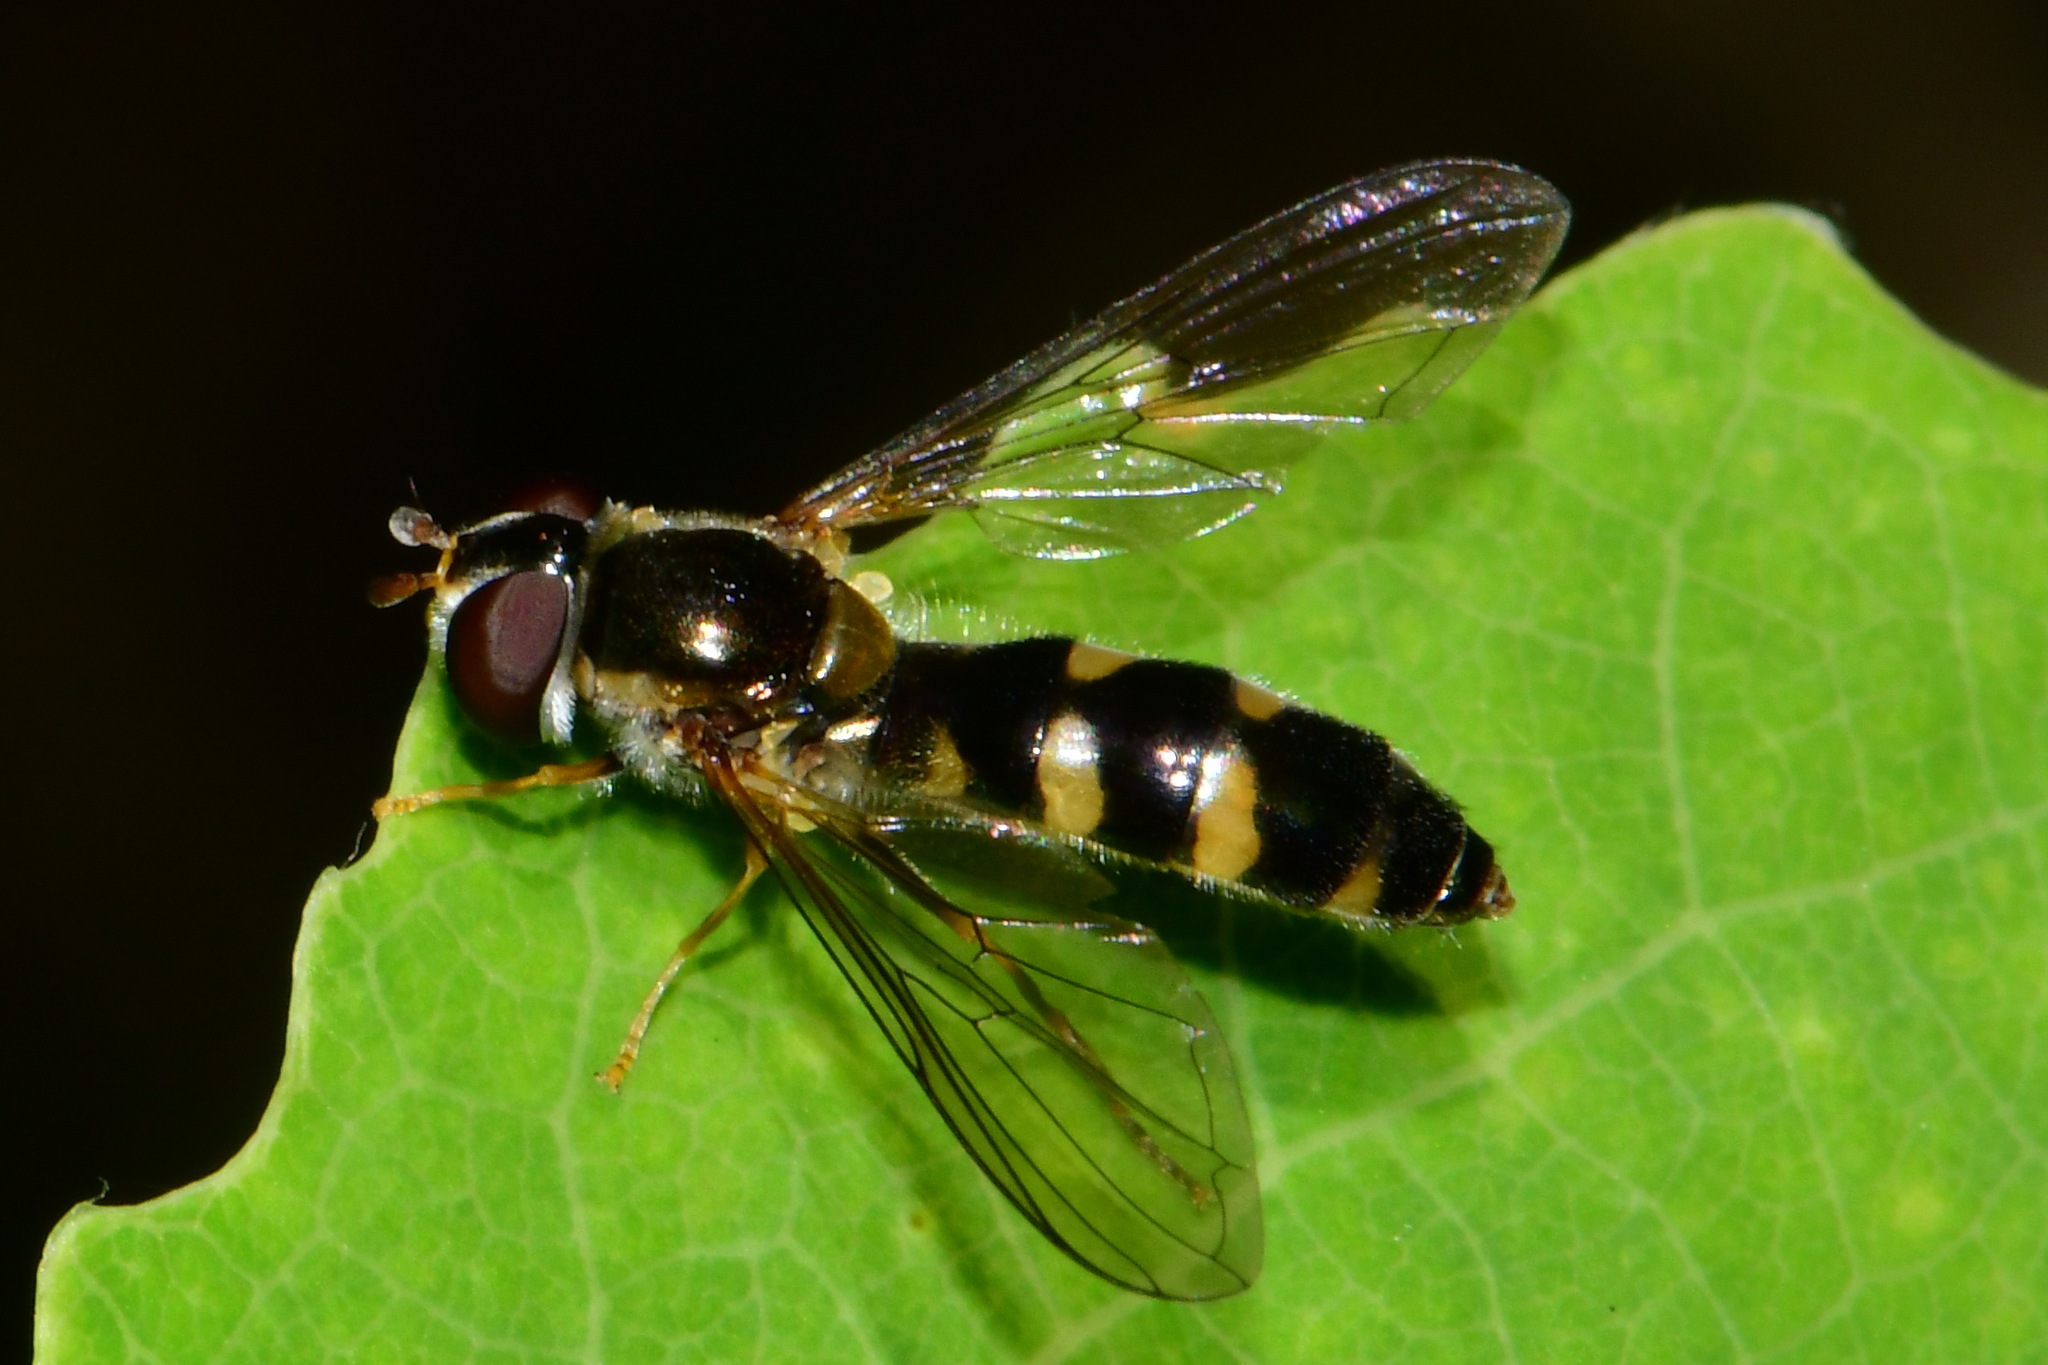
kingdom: Animalia
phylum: Arthropoda
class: Insecta
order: Diptera
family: Syrphidae
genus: Meligramma
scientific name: Meligramma triangulifera
